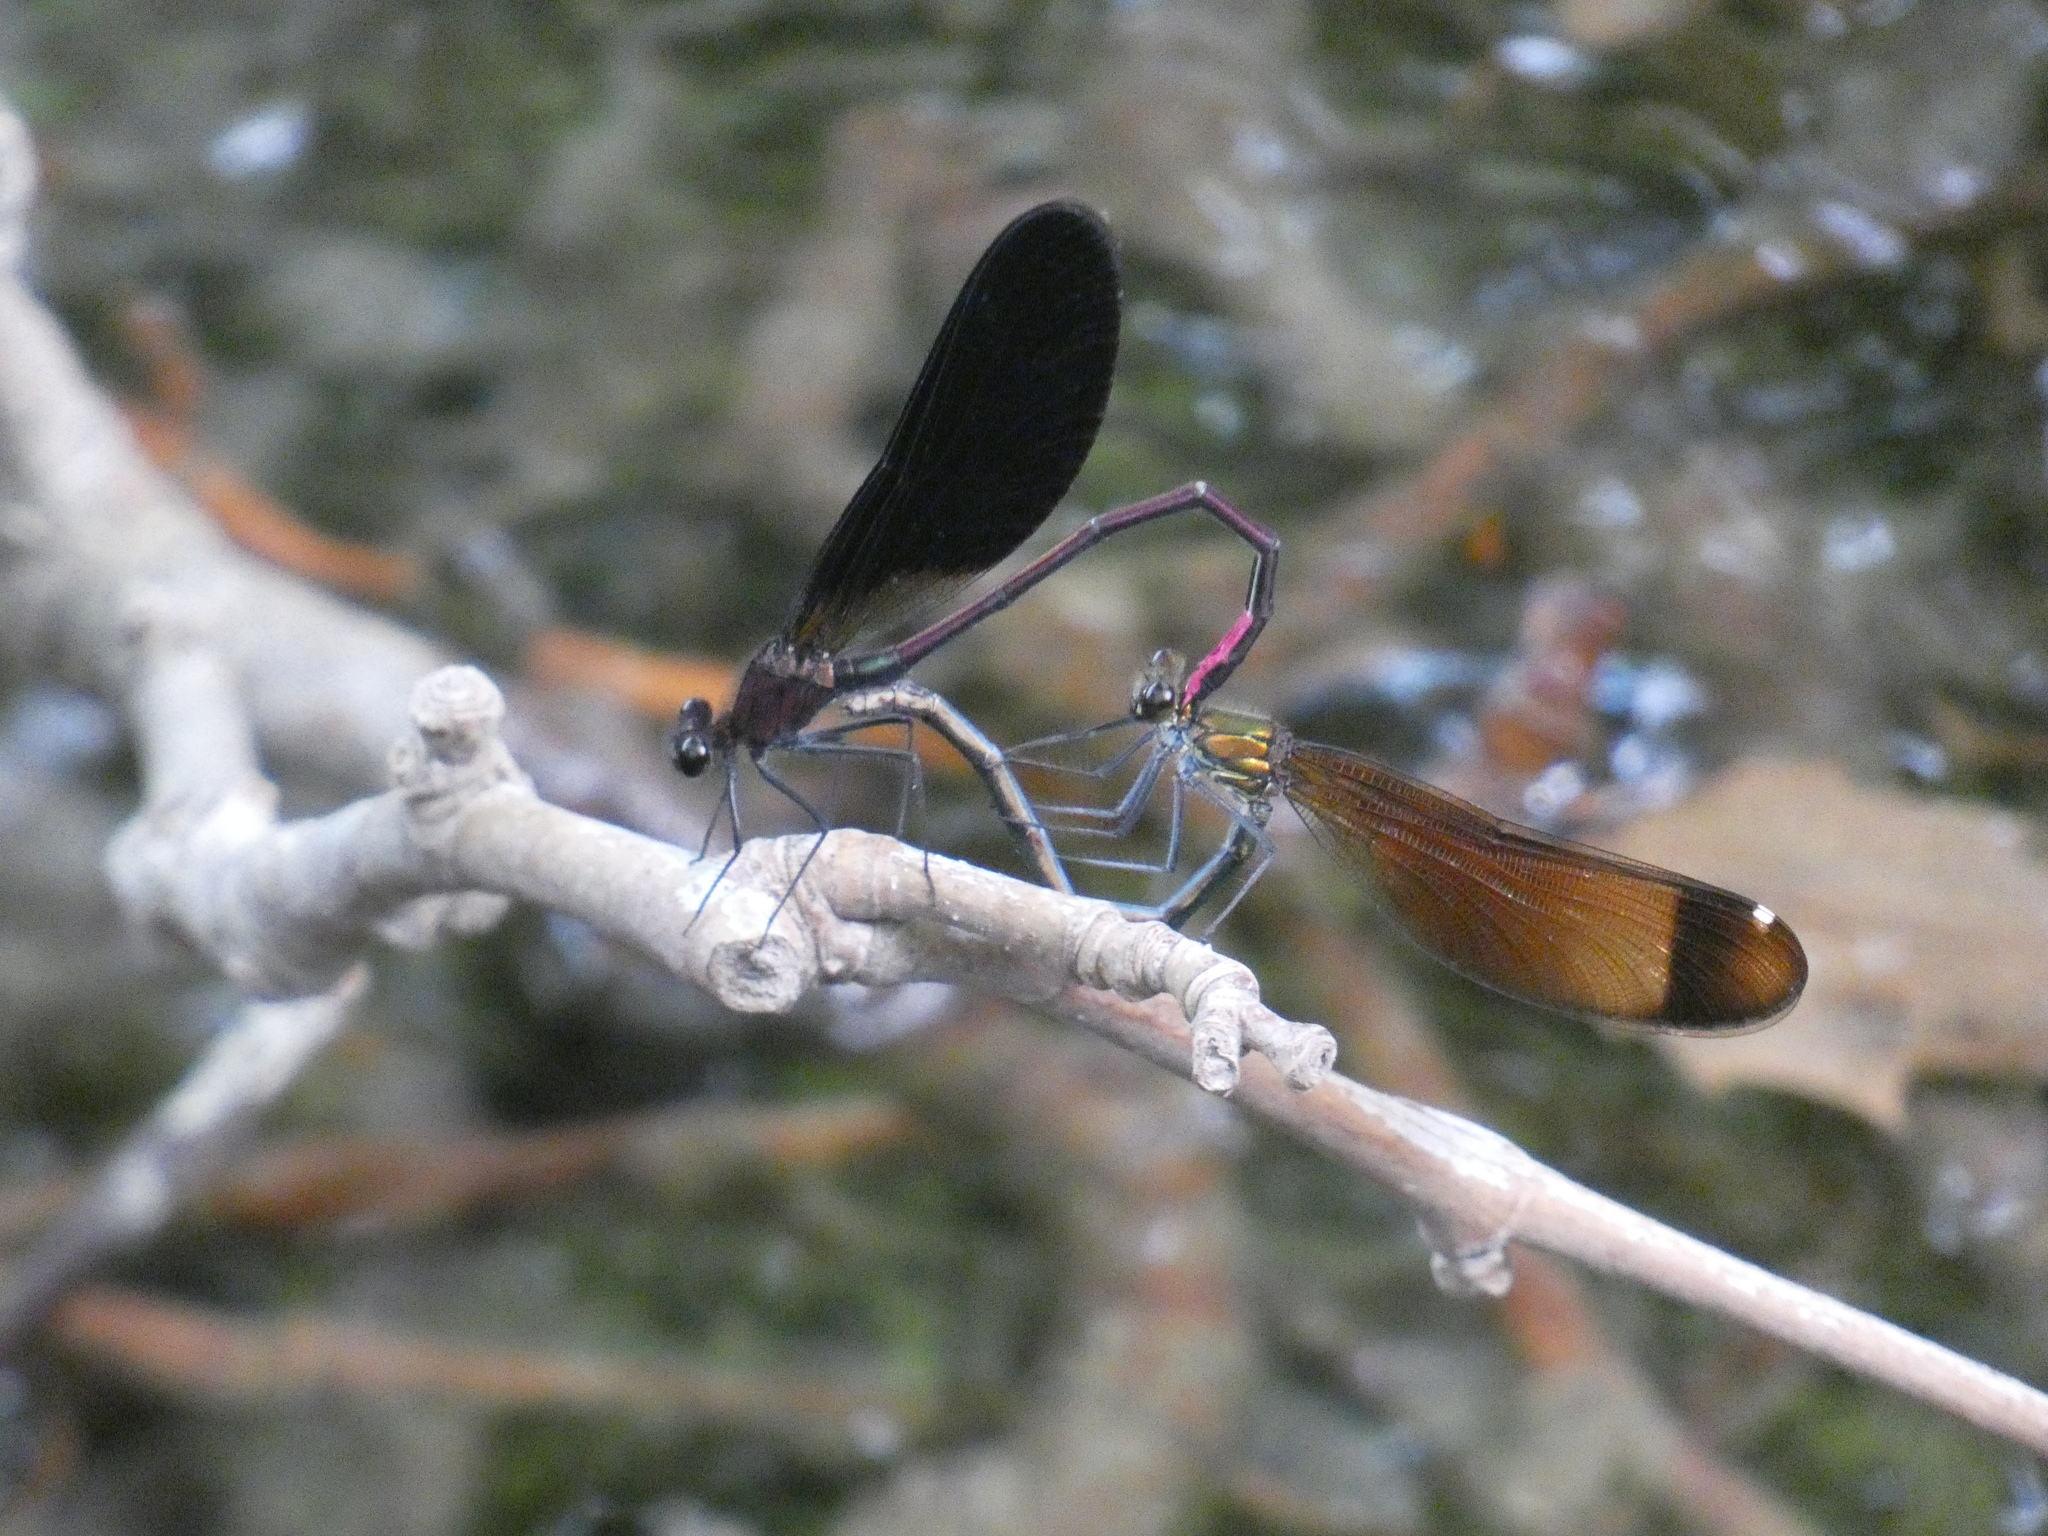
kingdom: Animalia
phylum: Arthropoda
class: Insecta
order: Odonata
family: Calopterygidae
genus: Calopteryx
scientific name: Calopteryx haemorrhoidalis
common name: Copper demoiselle
